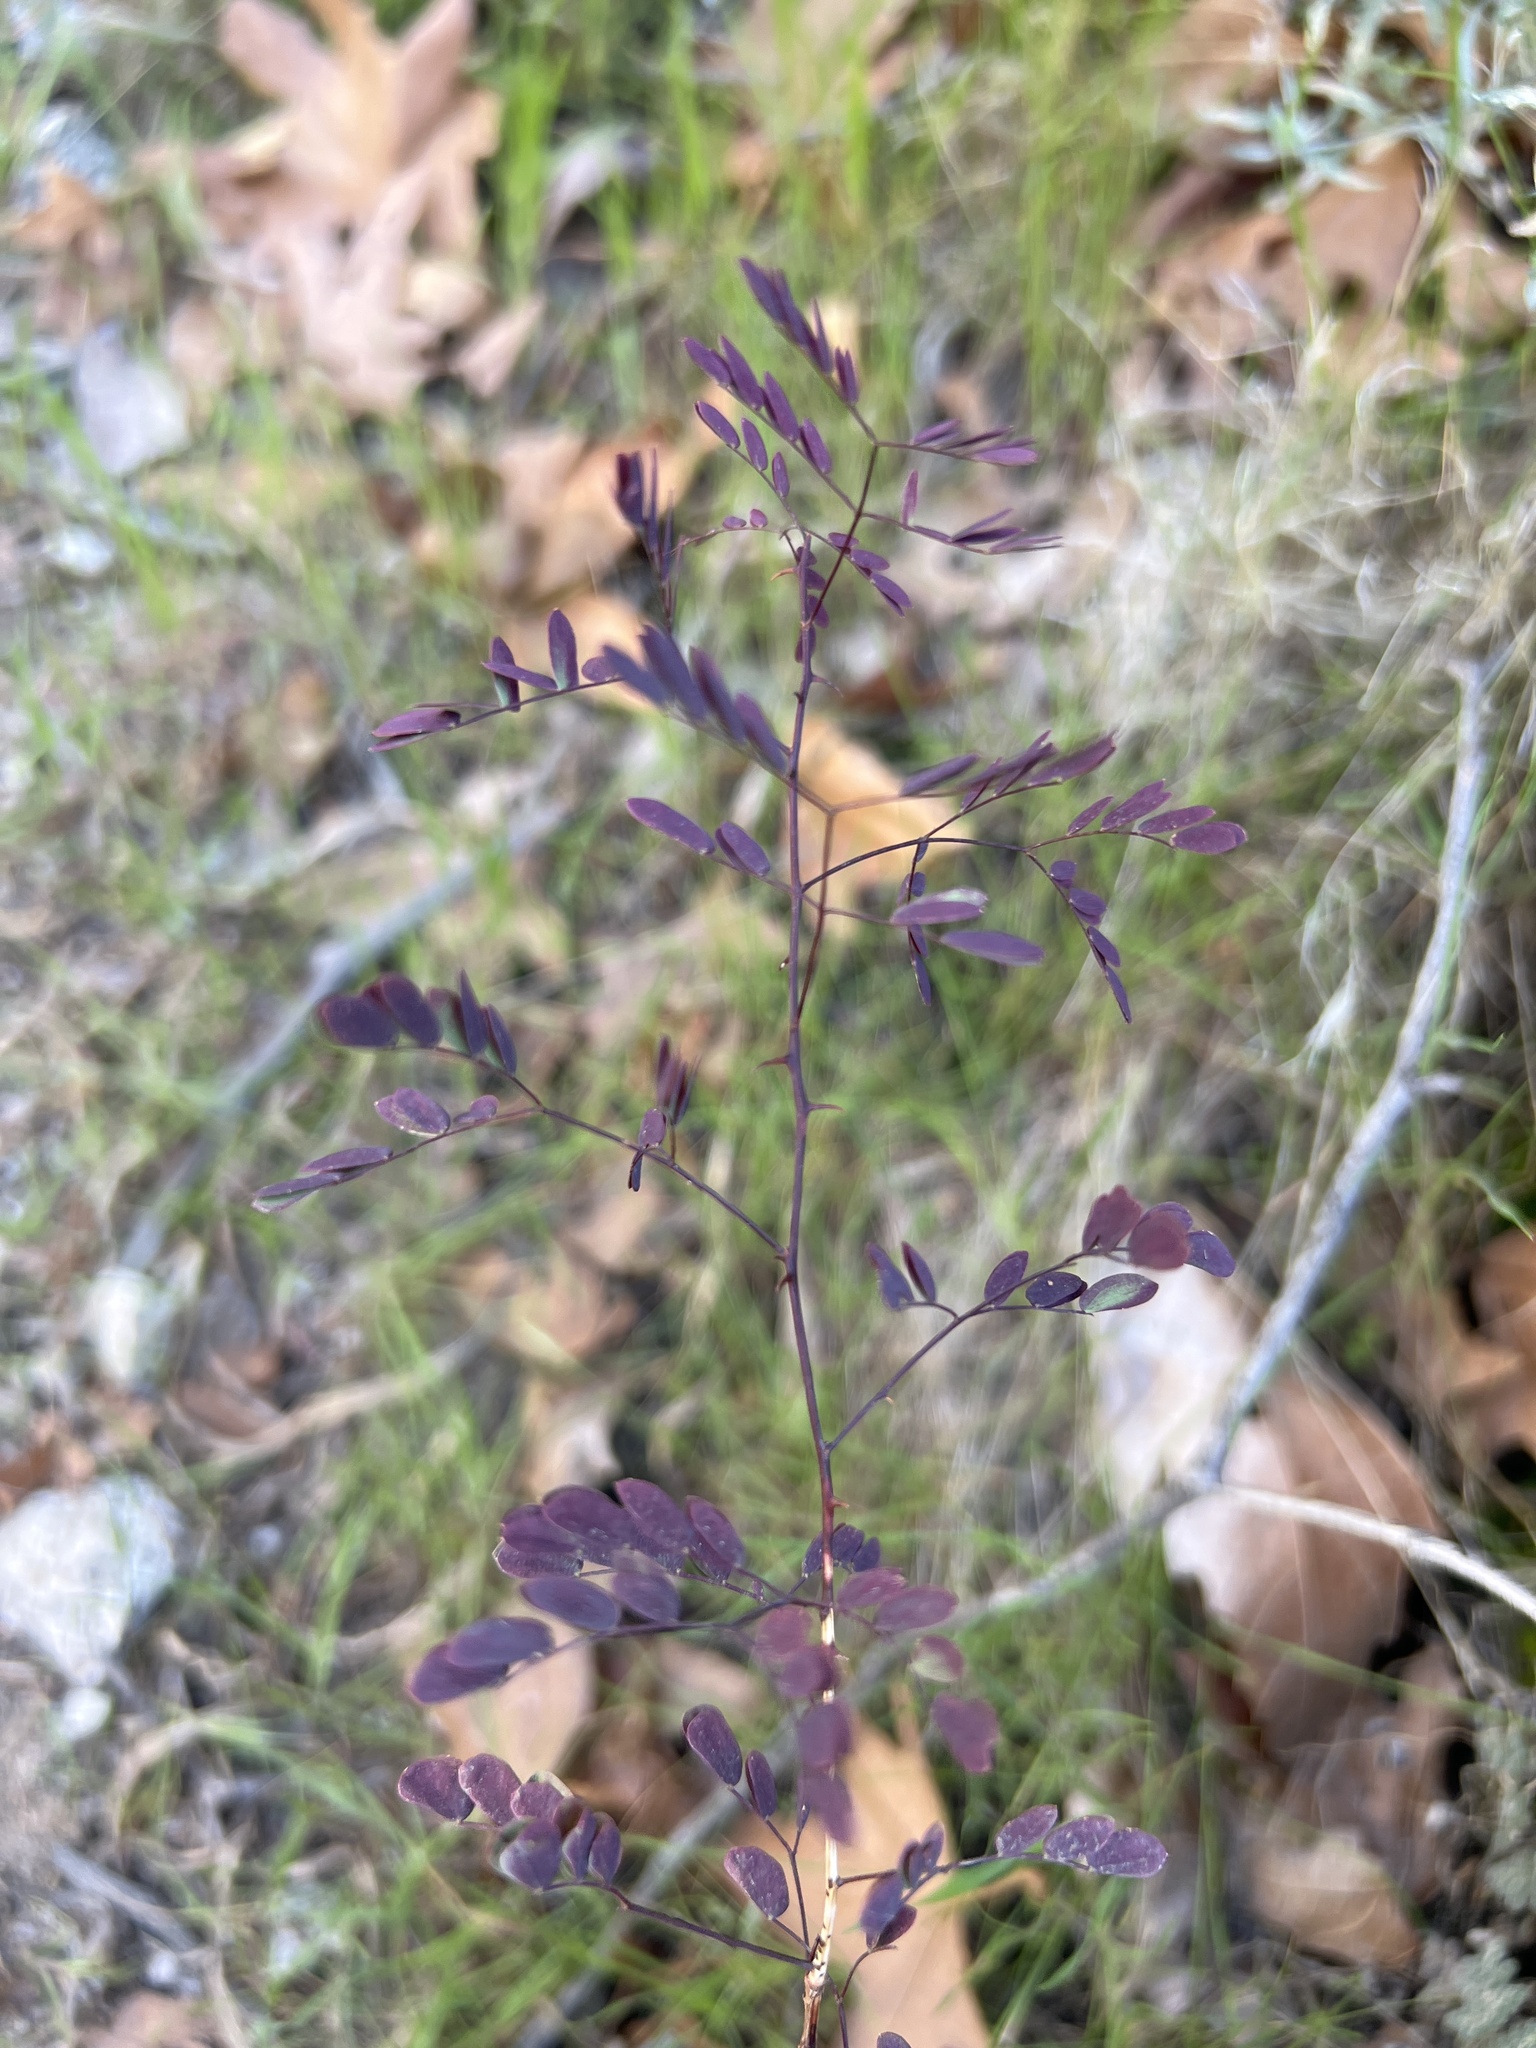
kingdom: Plantae
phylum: Tracheophyta
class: Magnoliopsida
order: Fabales
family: Fabaceae
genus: Senegalia
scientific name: Senegalia greggii
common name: Texas-mimosa
